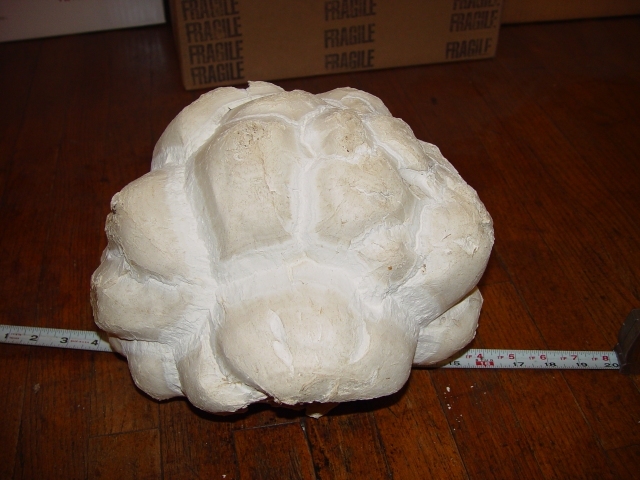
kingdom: Fungi
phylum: Basidiomycota
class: Agaricomycetes
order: Agaricales
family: Lycoperdaceae
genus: Calvatia
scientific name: Calvatia booniana
